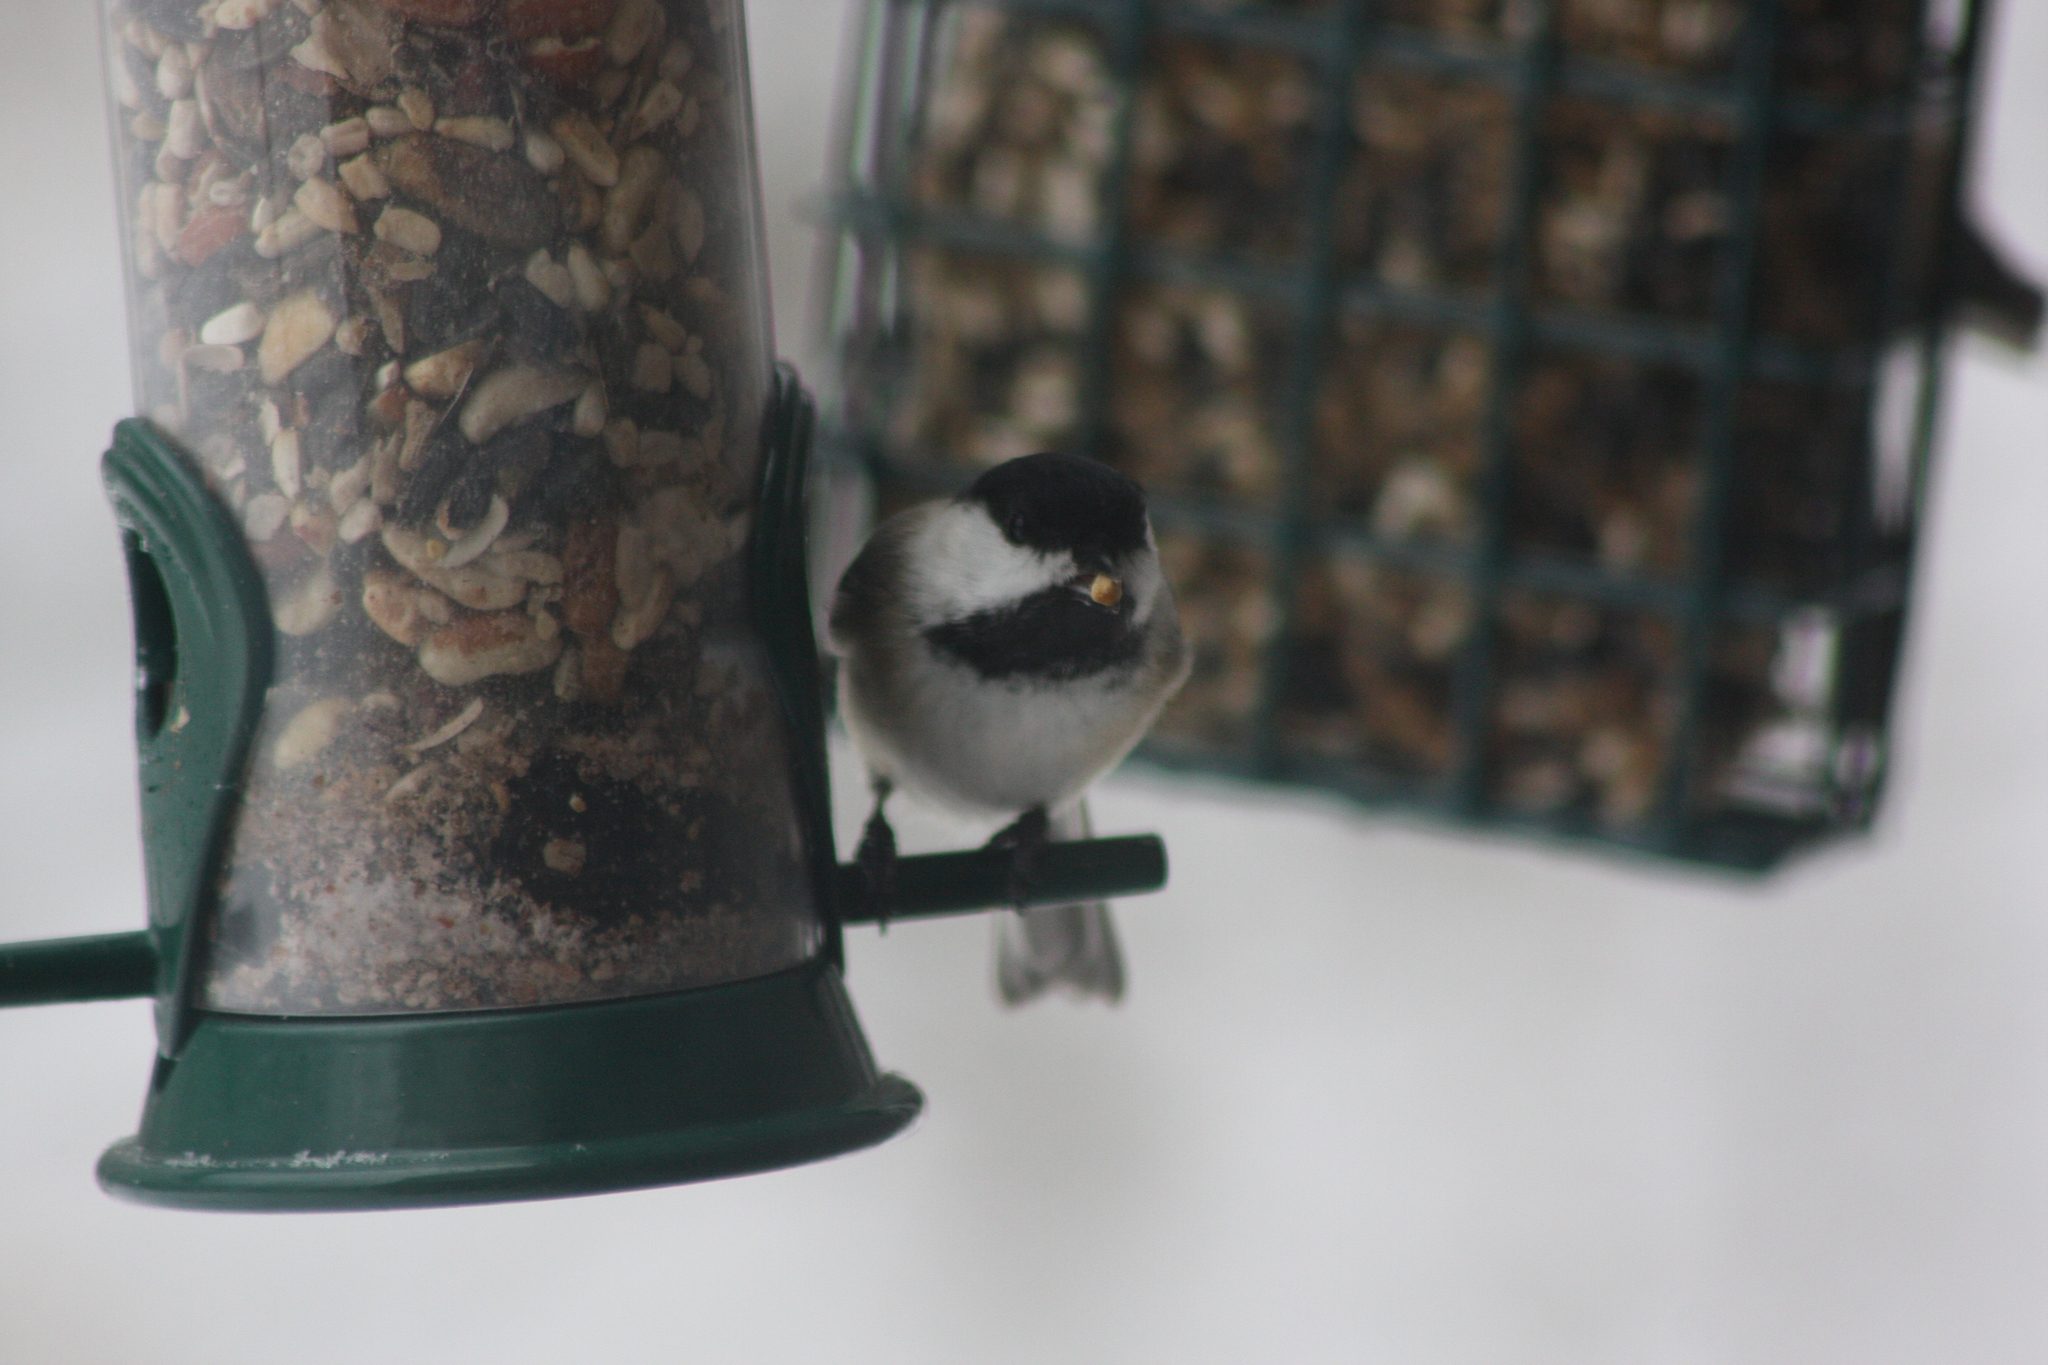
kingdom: Animalia
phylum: Chordata
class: Aves
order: Passeriformes
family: Paridae
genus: Poecile
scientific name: Poecile atricapillus
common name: Black-capped chickadee
